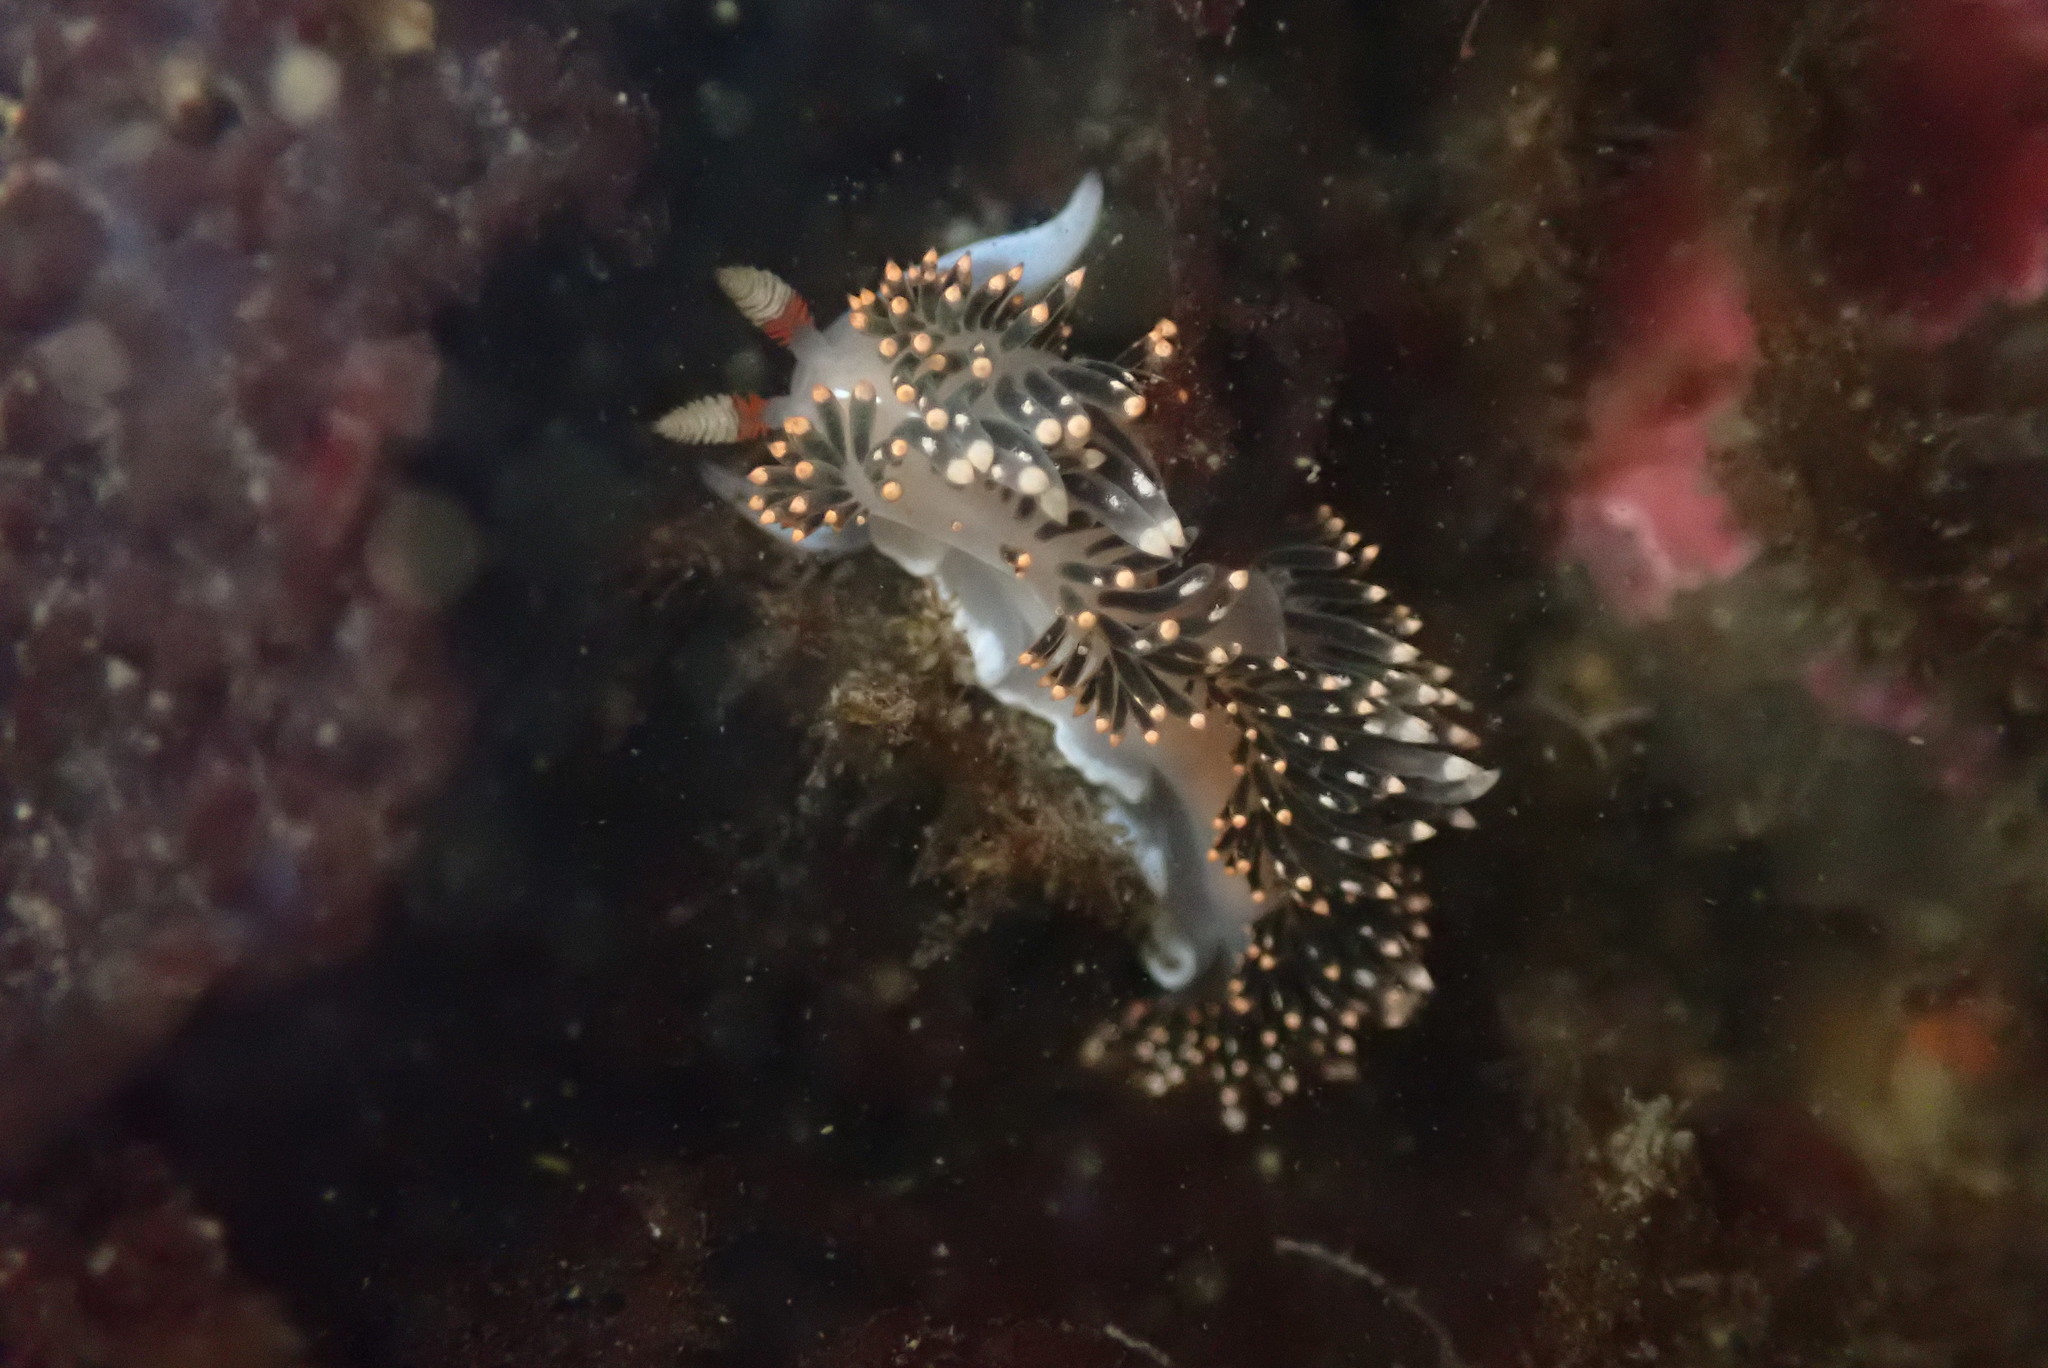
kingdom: Animalia
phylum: Mollusca
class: Gastropoda
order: Nudibranchia
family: Facelinidae
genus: Phidiana
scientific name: Phidiana hiltoni
